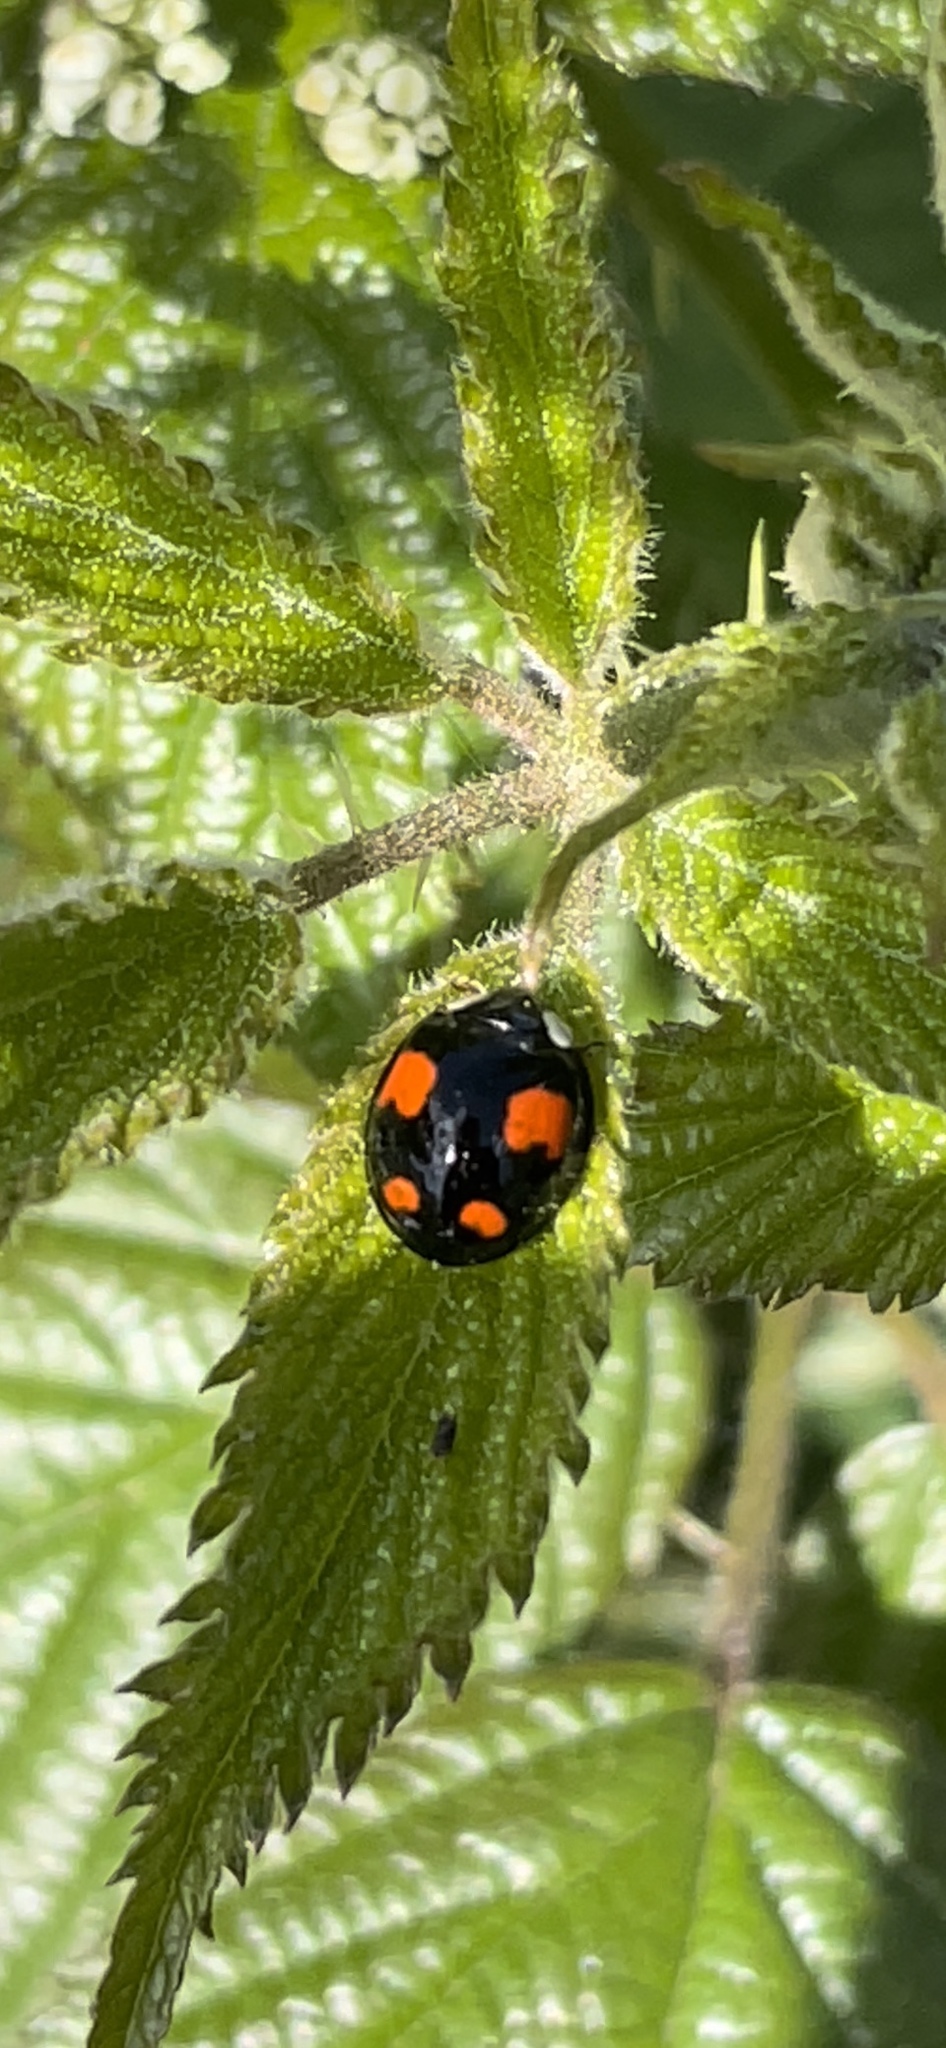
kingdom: Animalia
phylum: Arthropoda
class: Insecta
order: Coleoptera
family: Coccinellidae
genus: Harmonia
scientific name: Harmonia axyridis
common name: Harlequin ladybird
